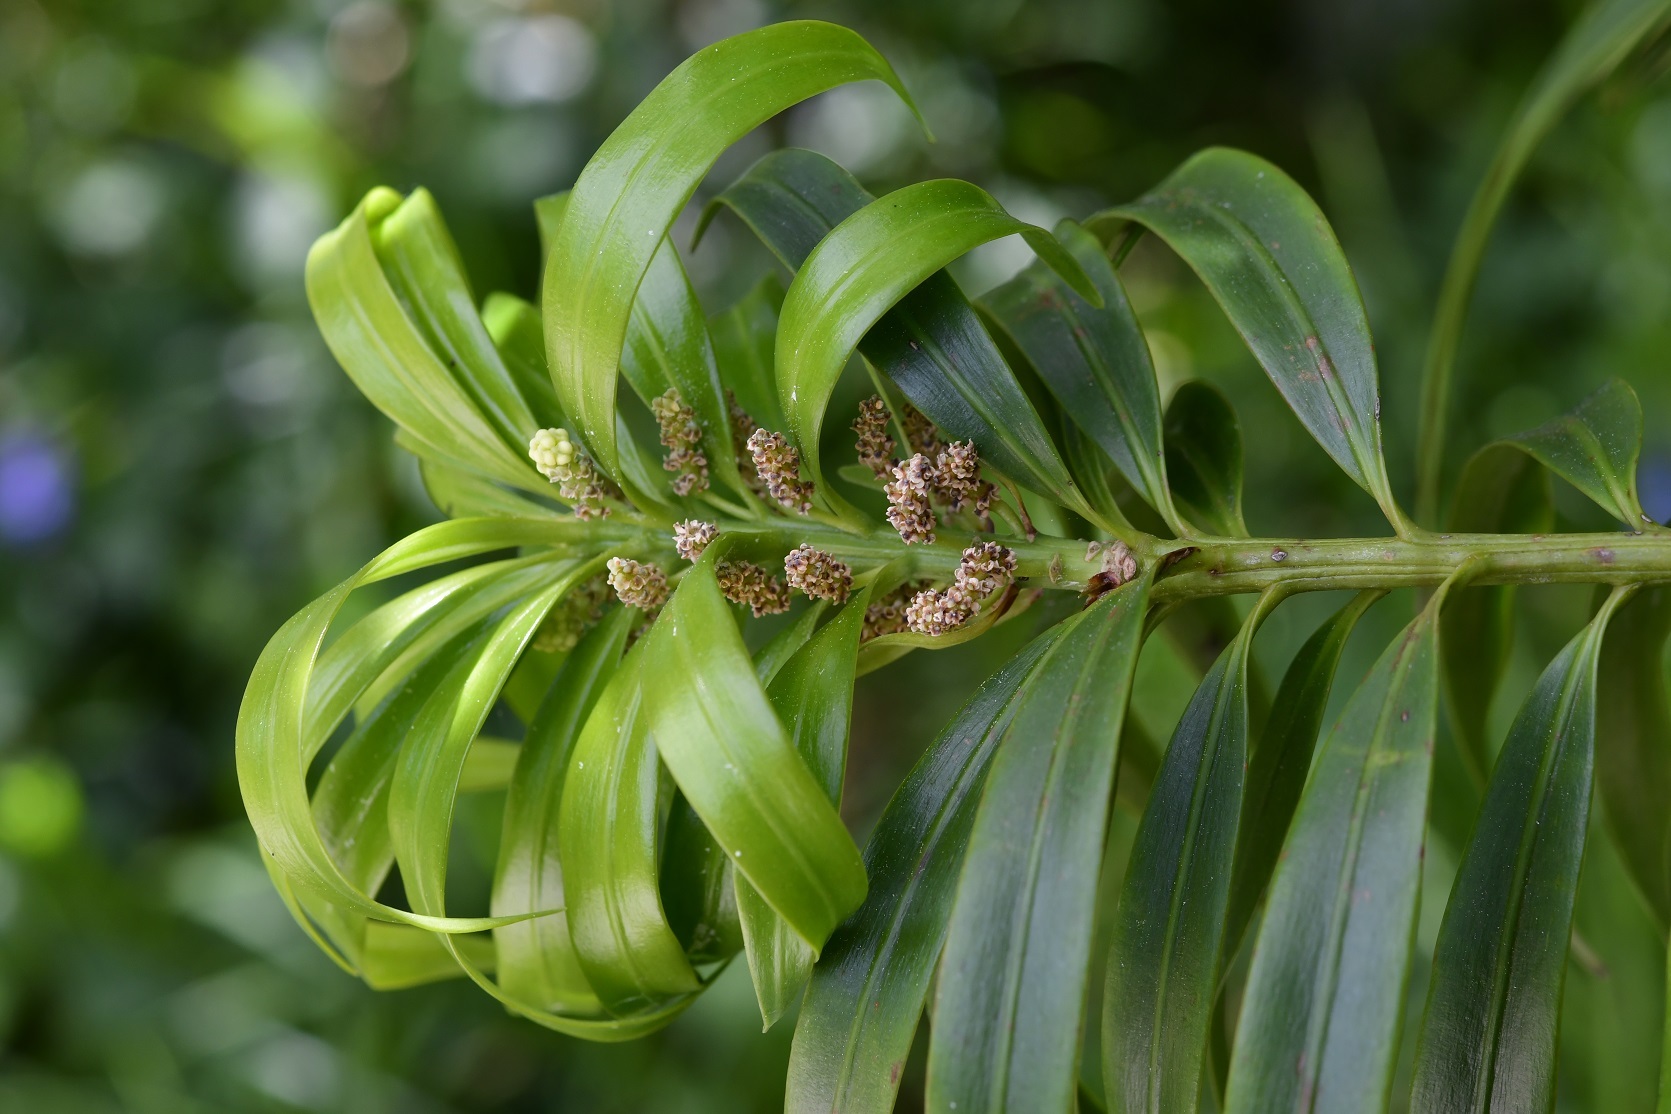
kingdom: Plantae
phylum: Tracheophyta
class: Pinopsida
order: Pinales
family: Podocarpaceae
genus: Podocarpus
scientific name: Podocarpus matudae
